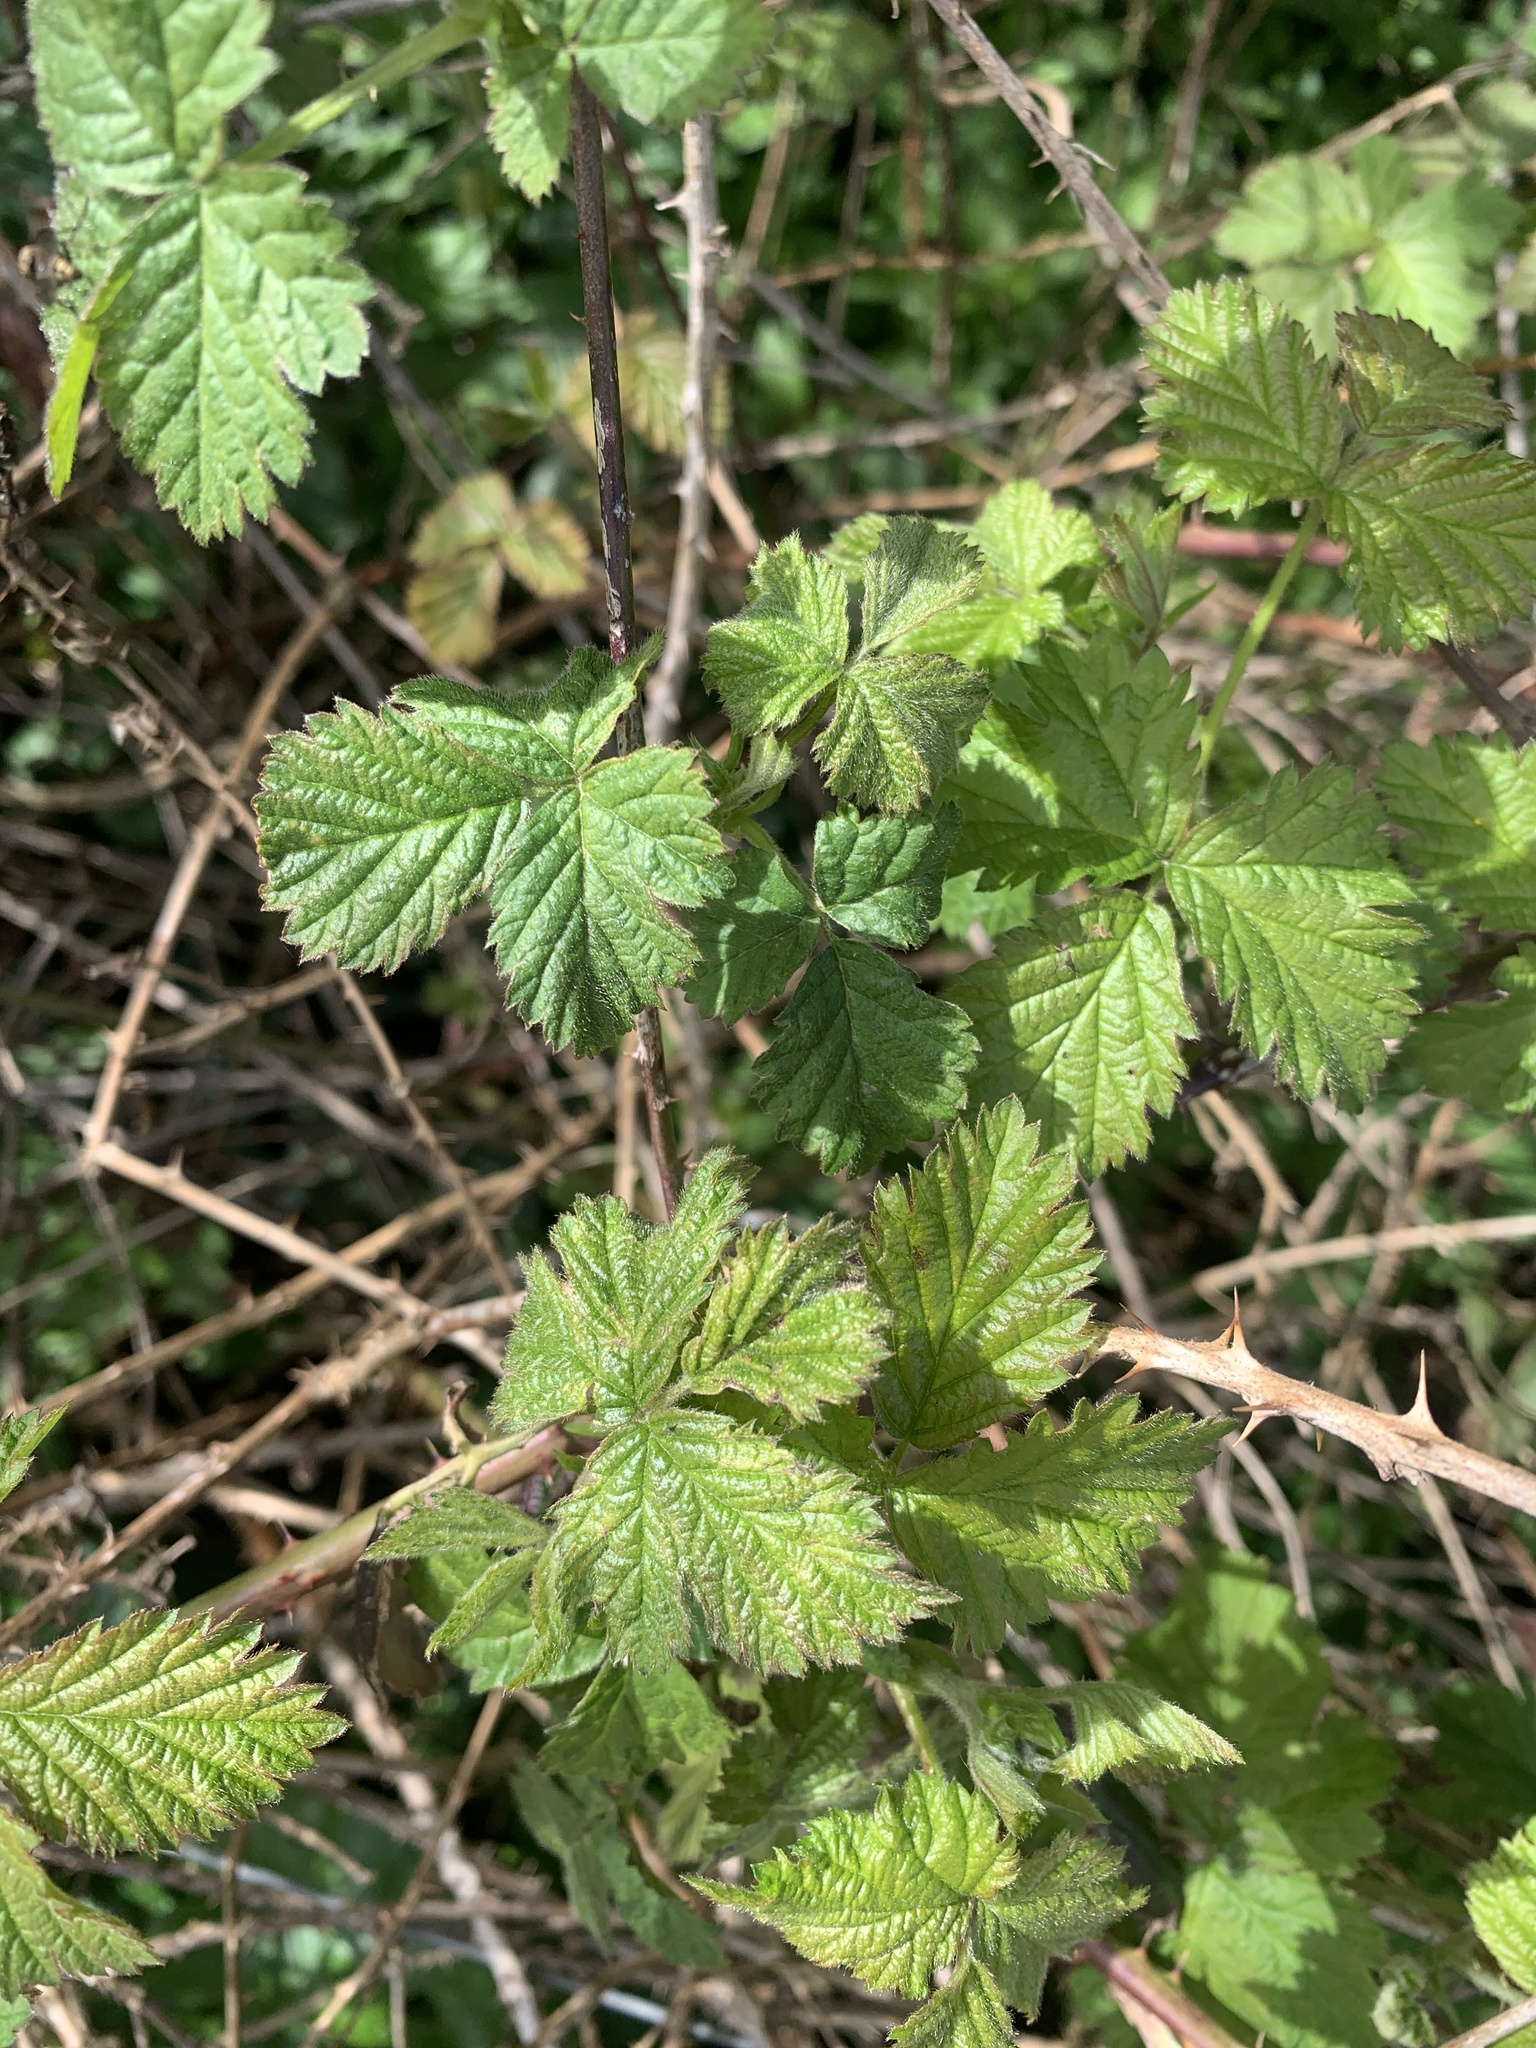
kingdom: Plantae
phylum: Tracheophyta
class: Magnoliopsida
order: Rosales
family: Rosaceae
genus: Rubus
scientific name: Rubus fruticosus
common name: Blackberry, bramble
